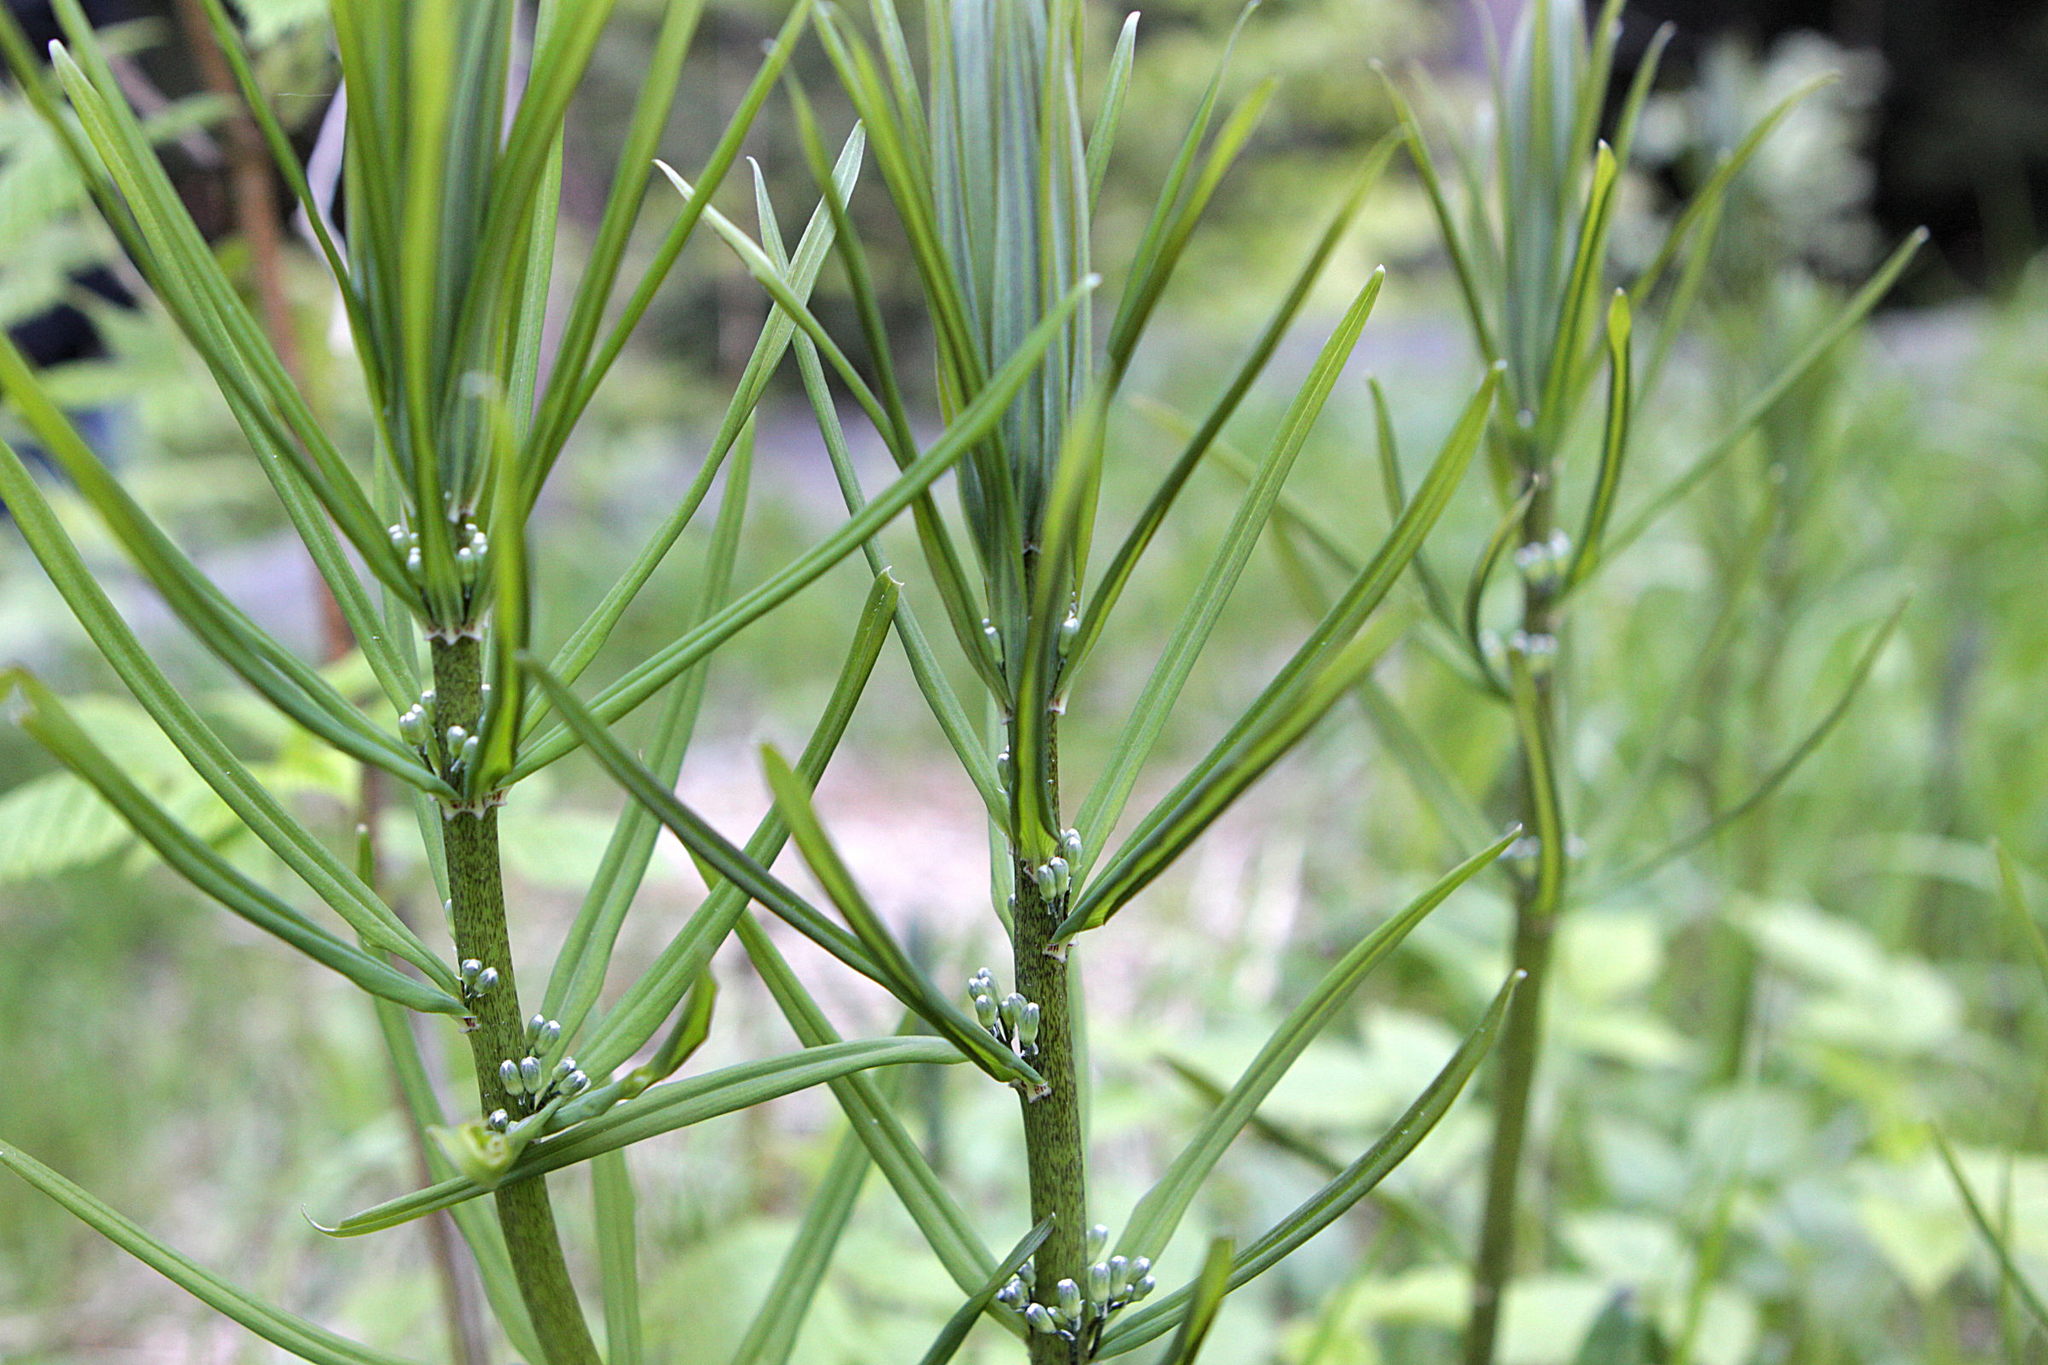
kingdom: Plantae
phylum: Tracheophyta
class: Liliopsida
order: Asparagales
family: Asparagaceae
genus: Polygonatum
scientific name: Polygonatum verticillatum
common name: Whorled solomon's-seal
